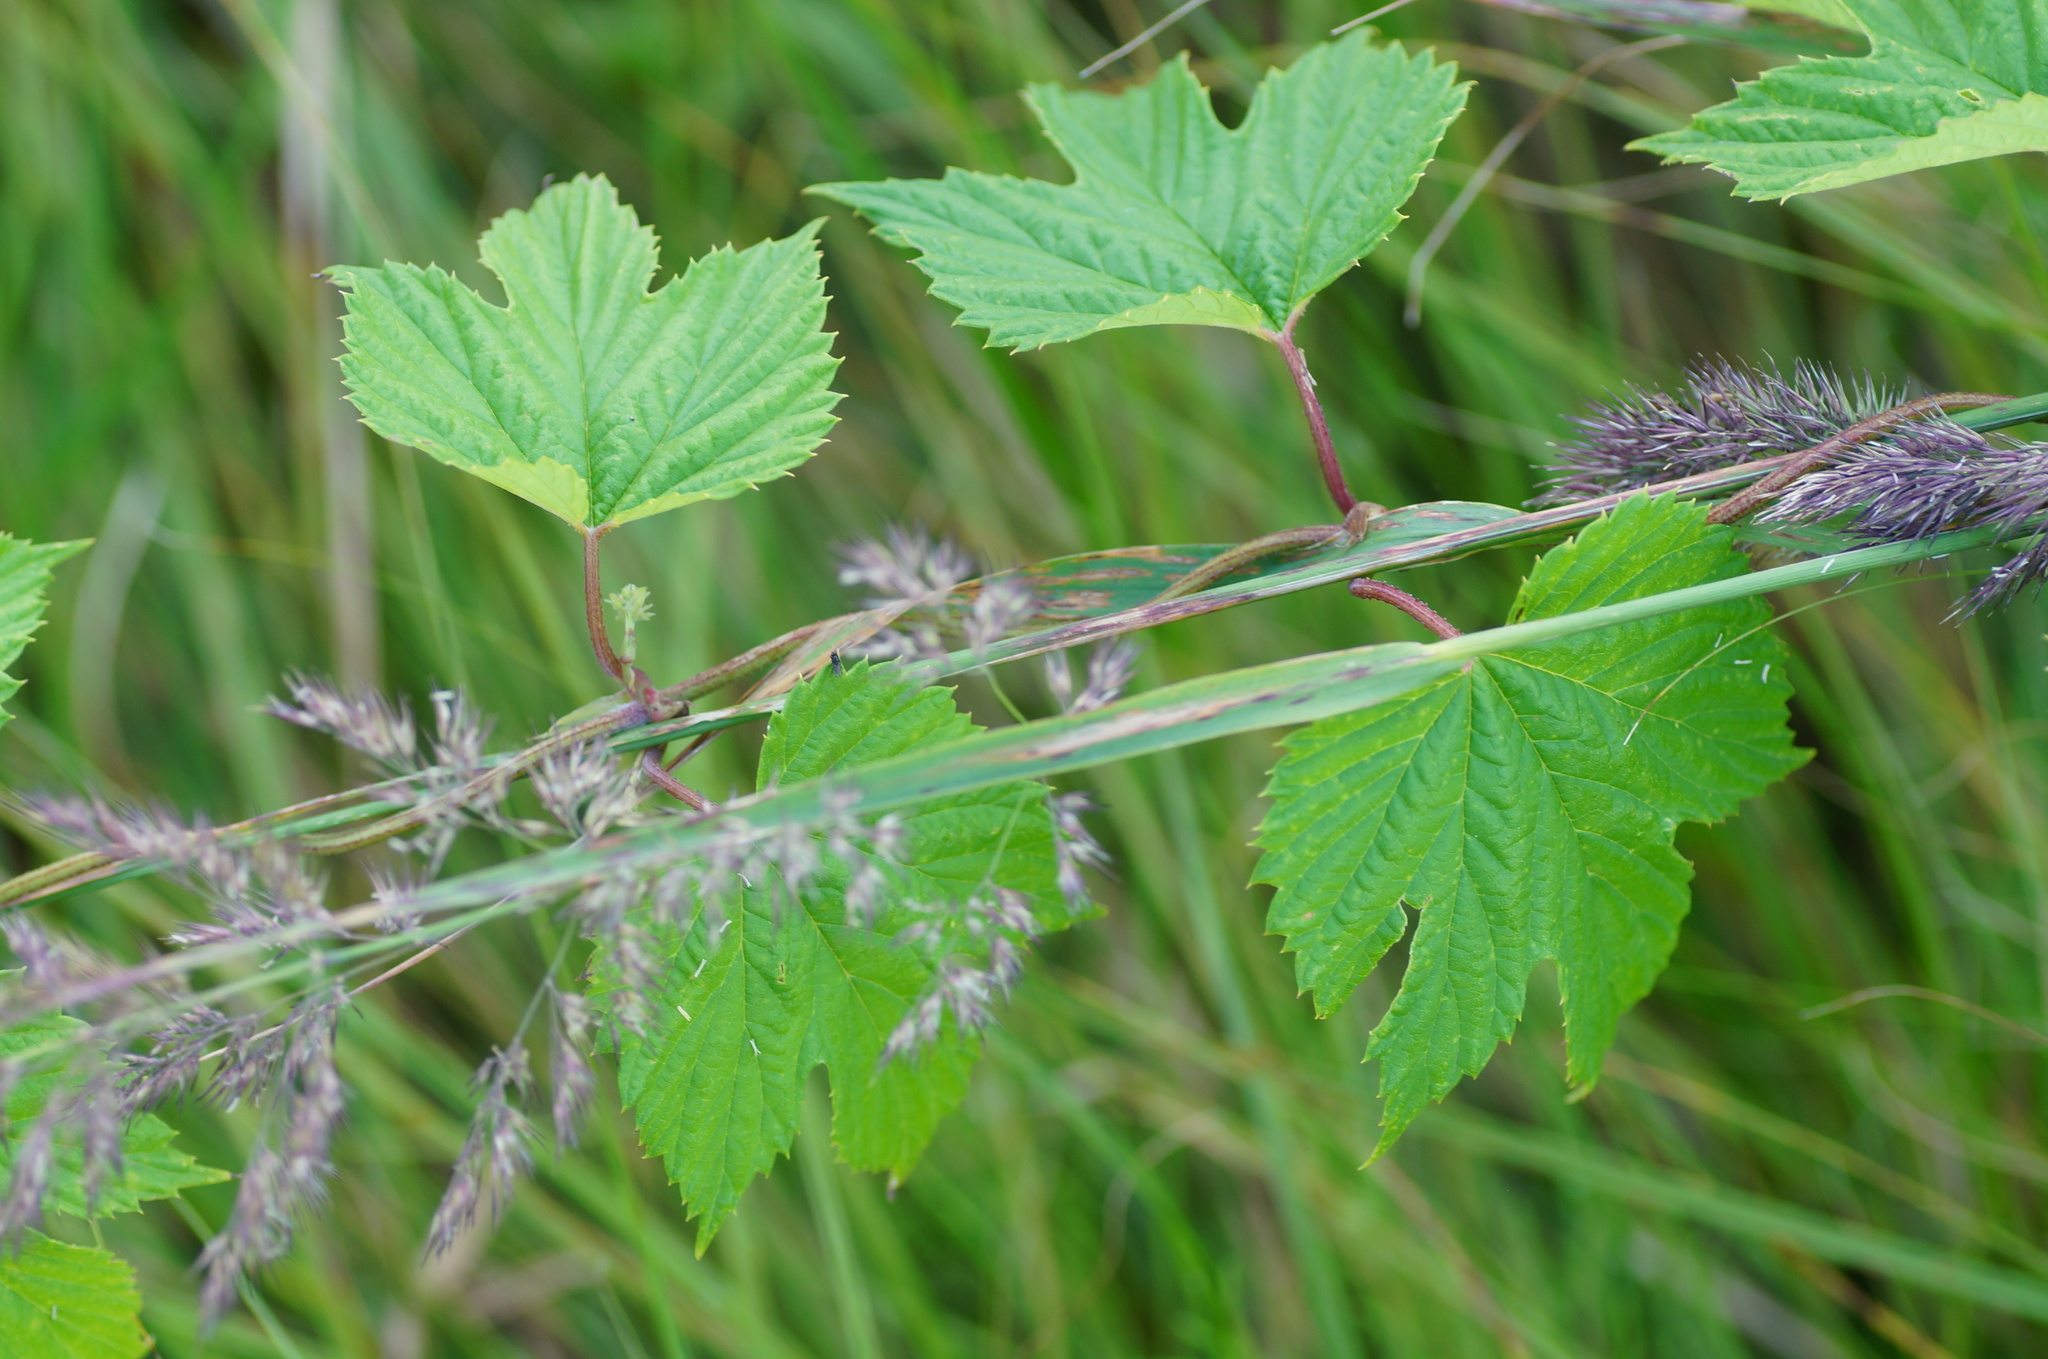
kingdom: Plantae
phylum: Tracheophyta
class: Magnoliopsida
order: Rosales
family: Cannabaceae
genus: Humulus
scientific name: Humulus lupulus
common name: Hop
